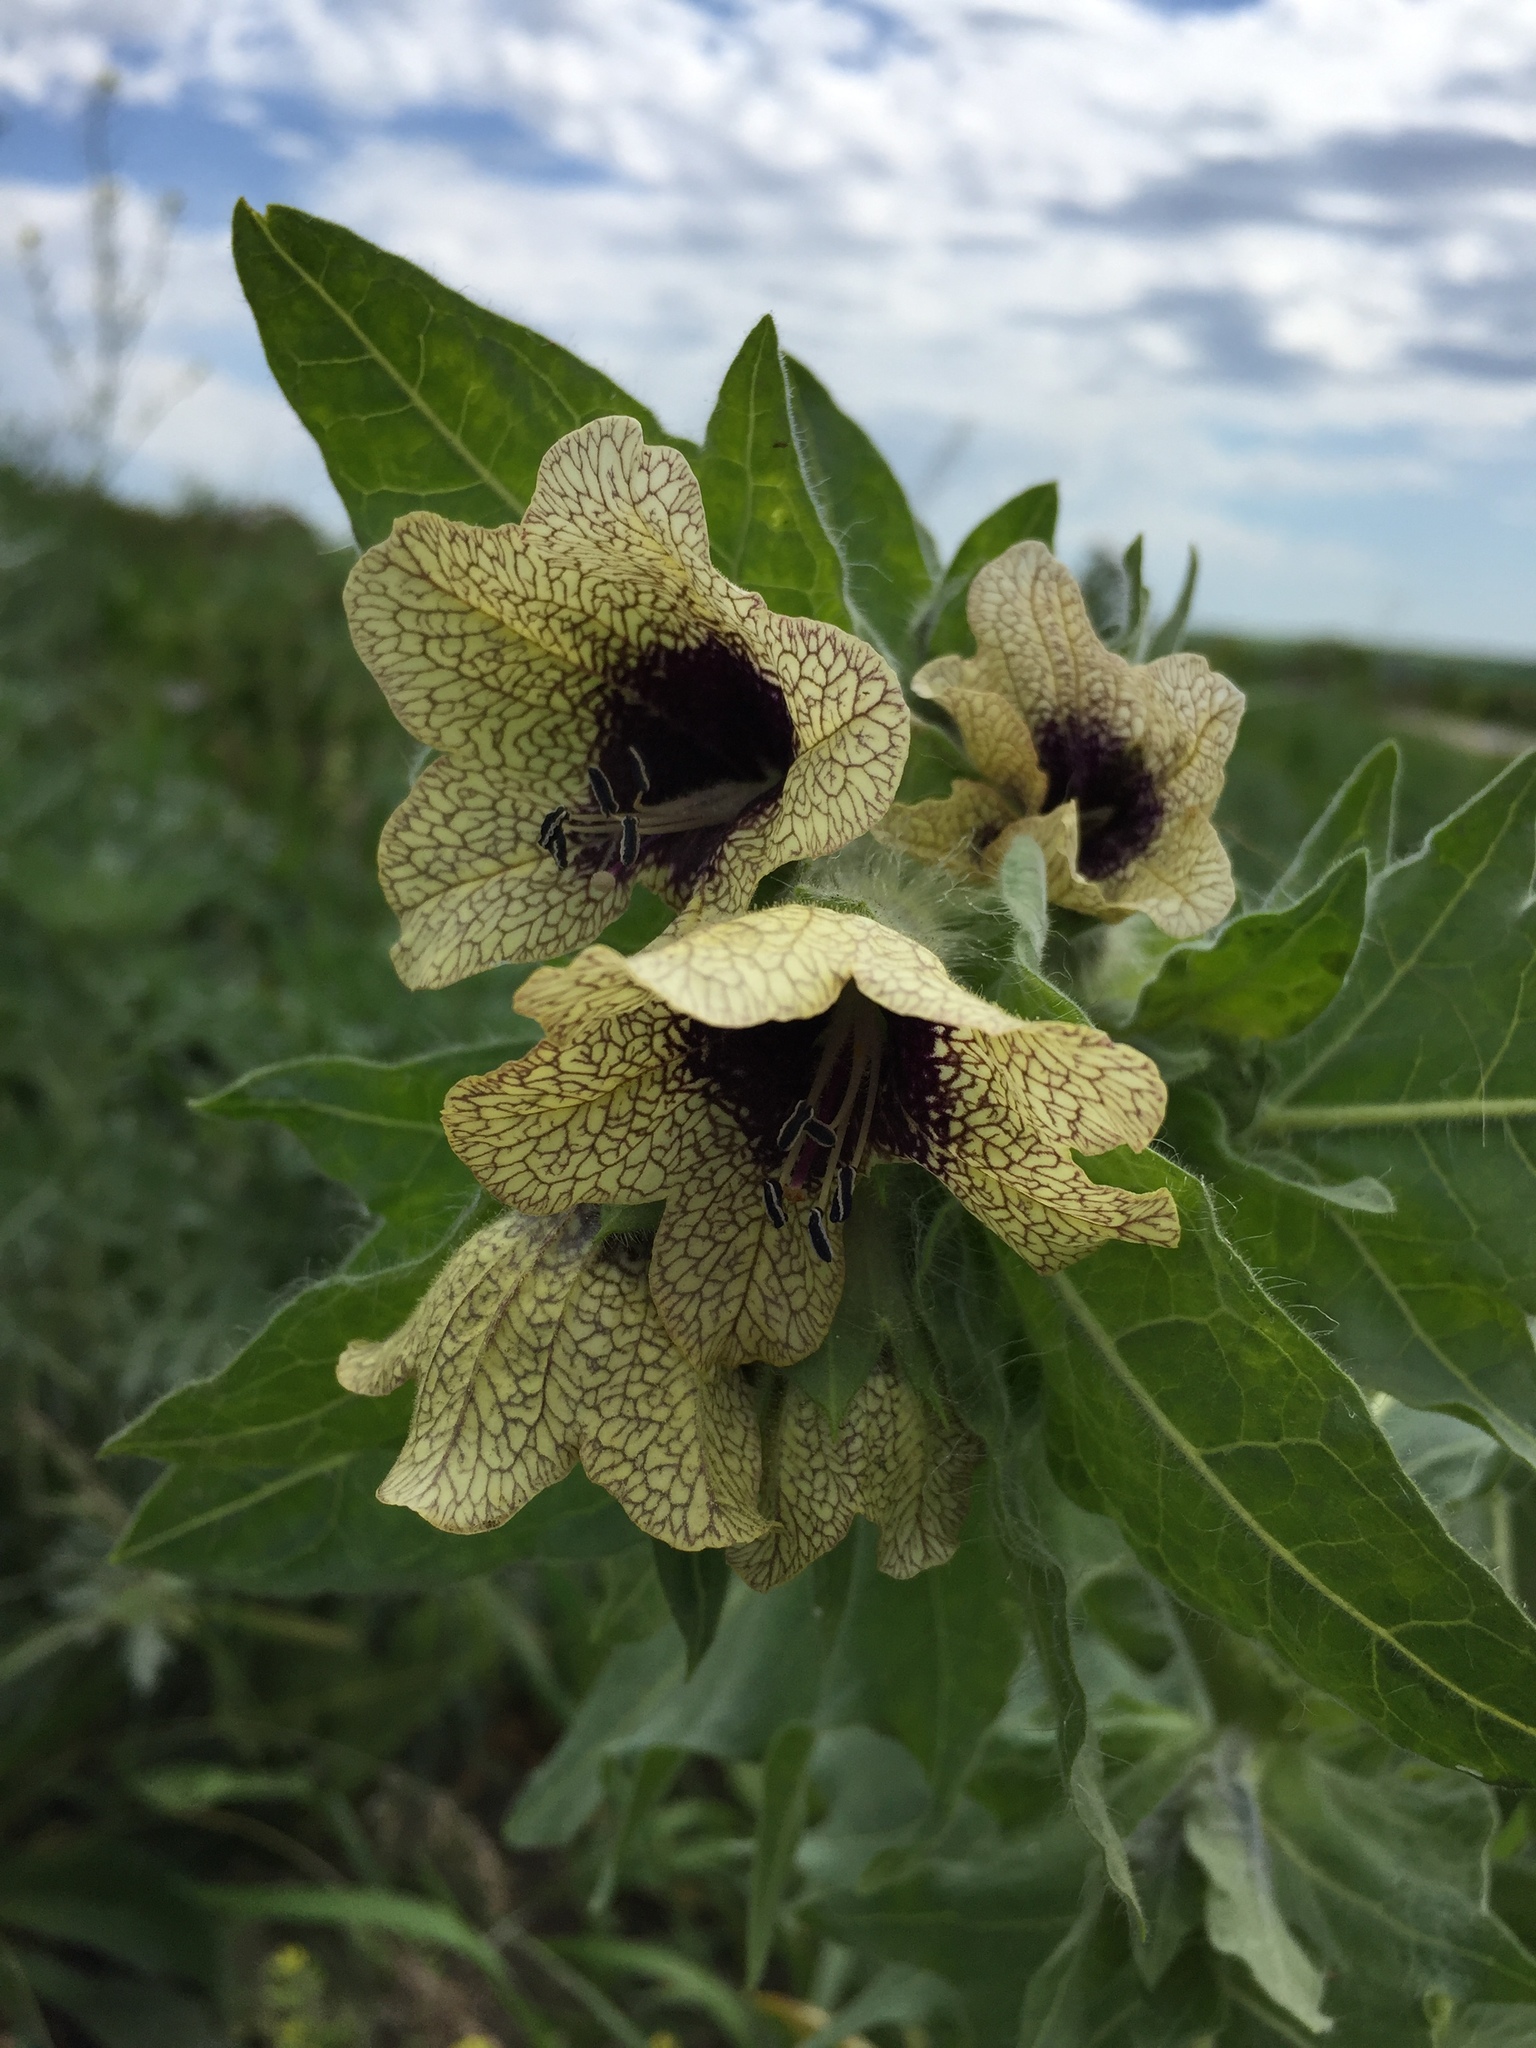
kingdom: Plantae
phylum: Tracheophyta
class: Magnoliopsida
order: Solanales
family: Solanaceae
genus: Hyoscyamus
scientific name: Hyoscyamus niger
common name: Henbane
